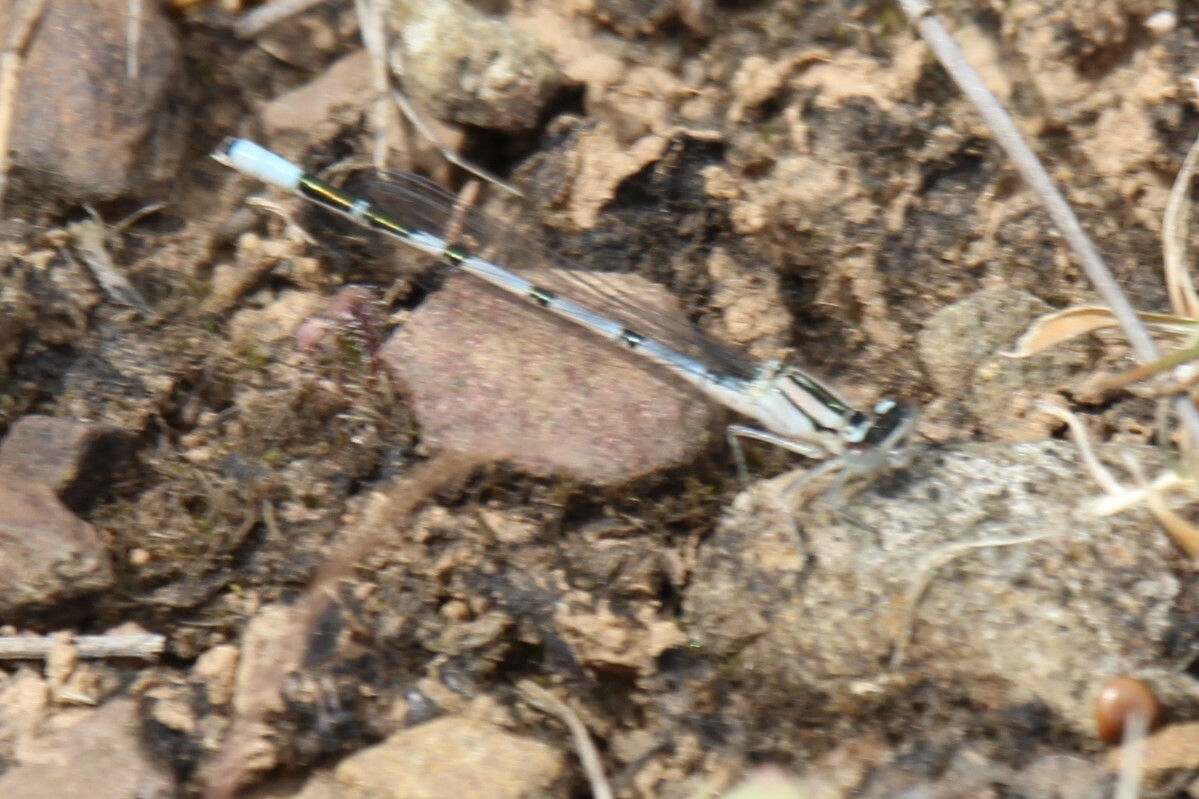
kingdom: Animalia
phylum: Arthropoda
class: Insecta
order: Odonata
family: Coenagrionidae
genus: Enallagma
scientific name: Enallagma cyathigerum
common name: Common blue damselfly
